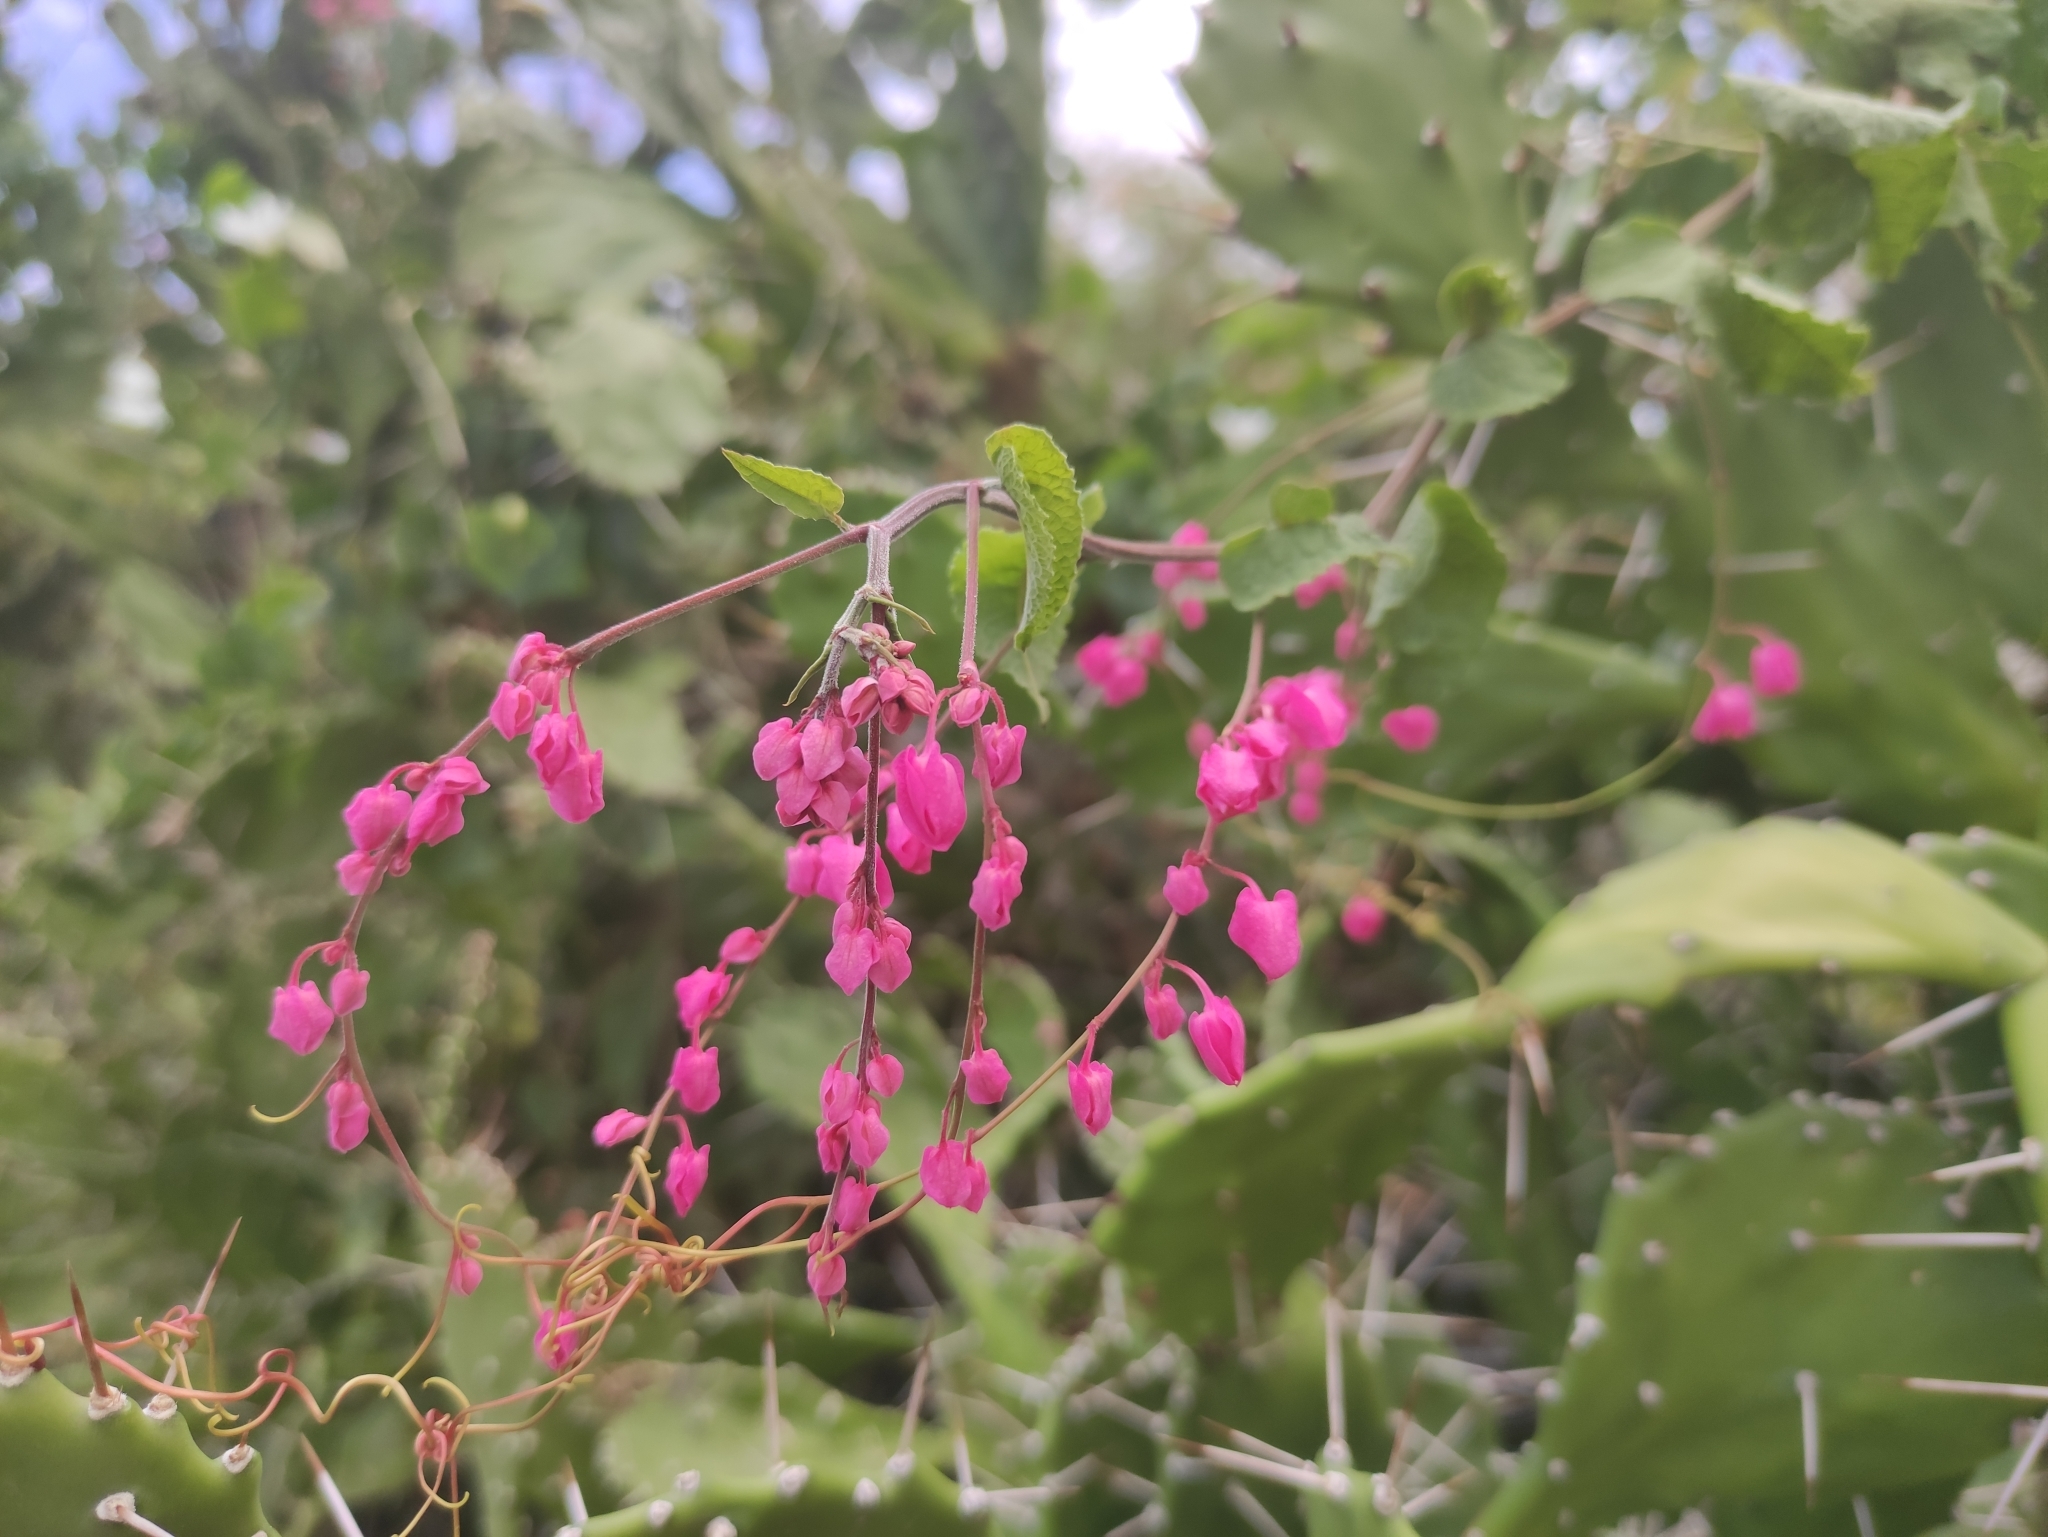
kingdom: Plantae
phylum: Tracheophyta
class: Magnoliopsida
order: Caryophyllales
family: Polygonaceae
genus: Antigonon
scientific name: Antigonon leptopus
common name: Coral vine
